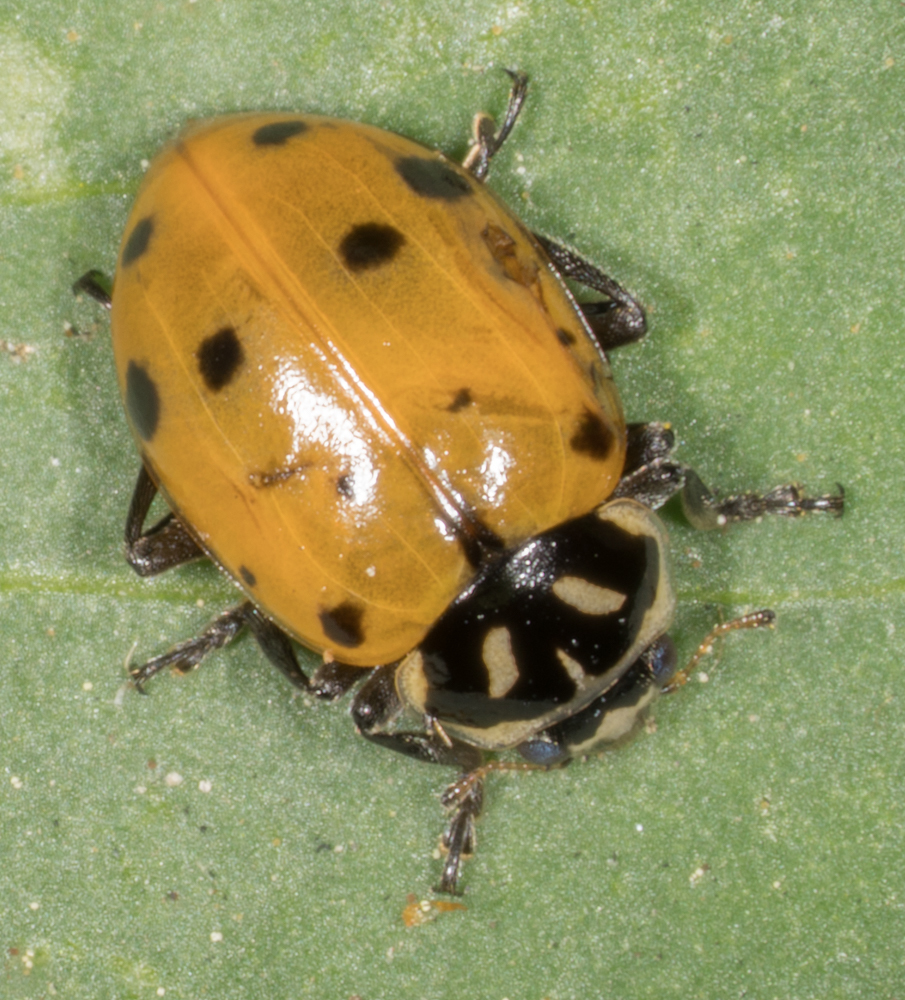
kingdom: Animalia
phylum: Arthropoda
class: Insecta
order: Coleoptera
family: Coccinellidae
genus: Hippodamia
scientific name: Hippodamia convergens
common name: Convergent lady beetle
